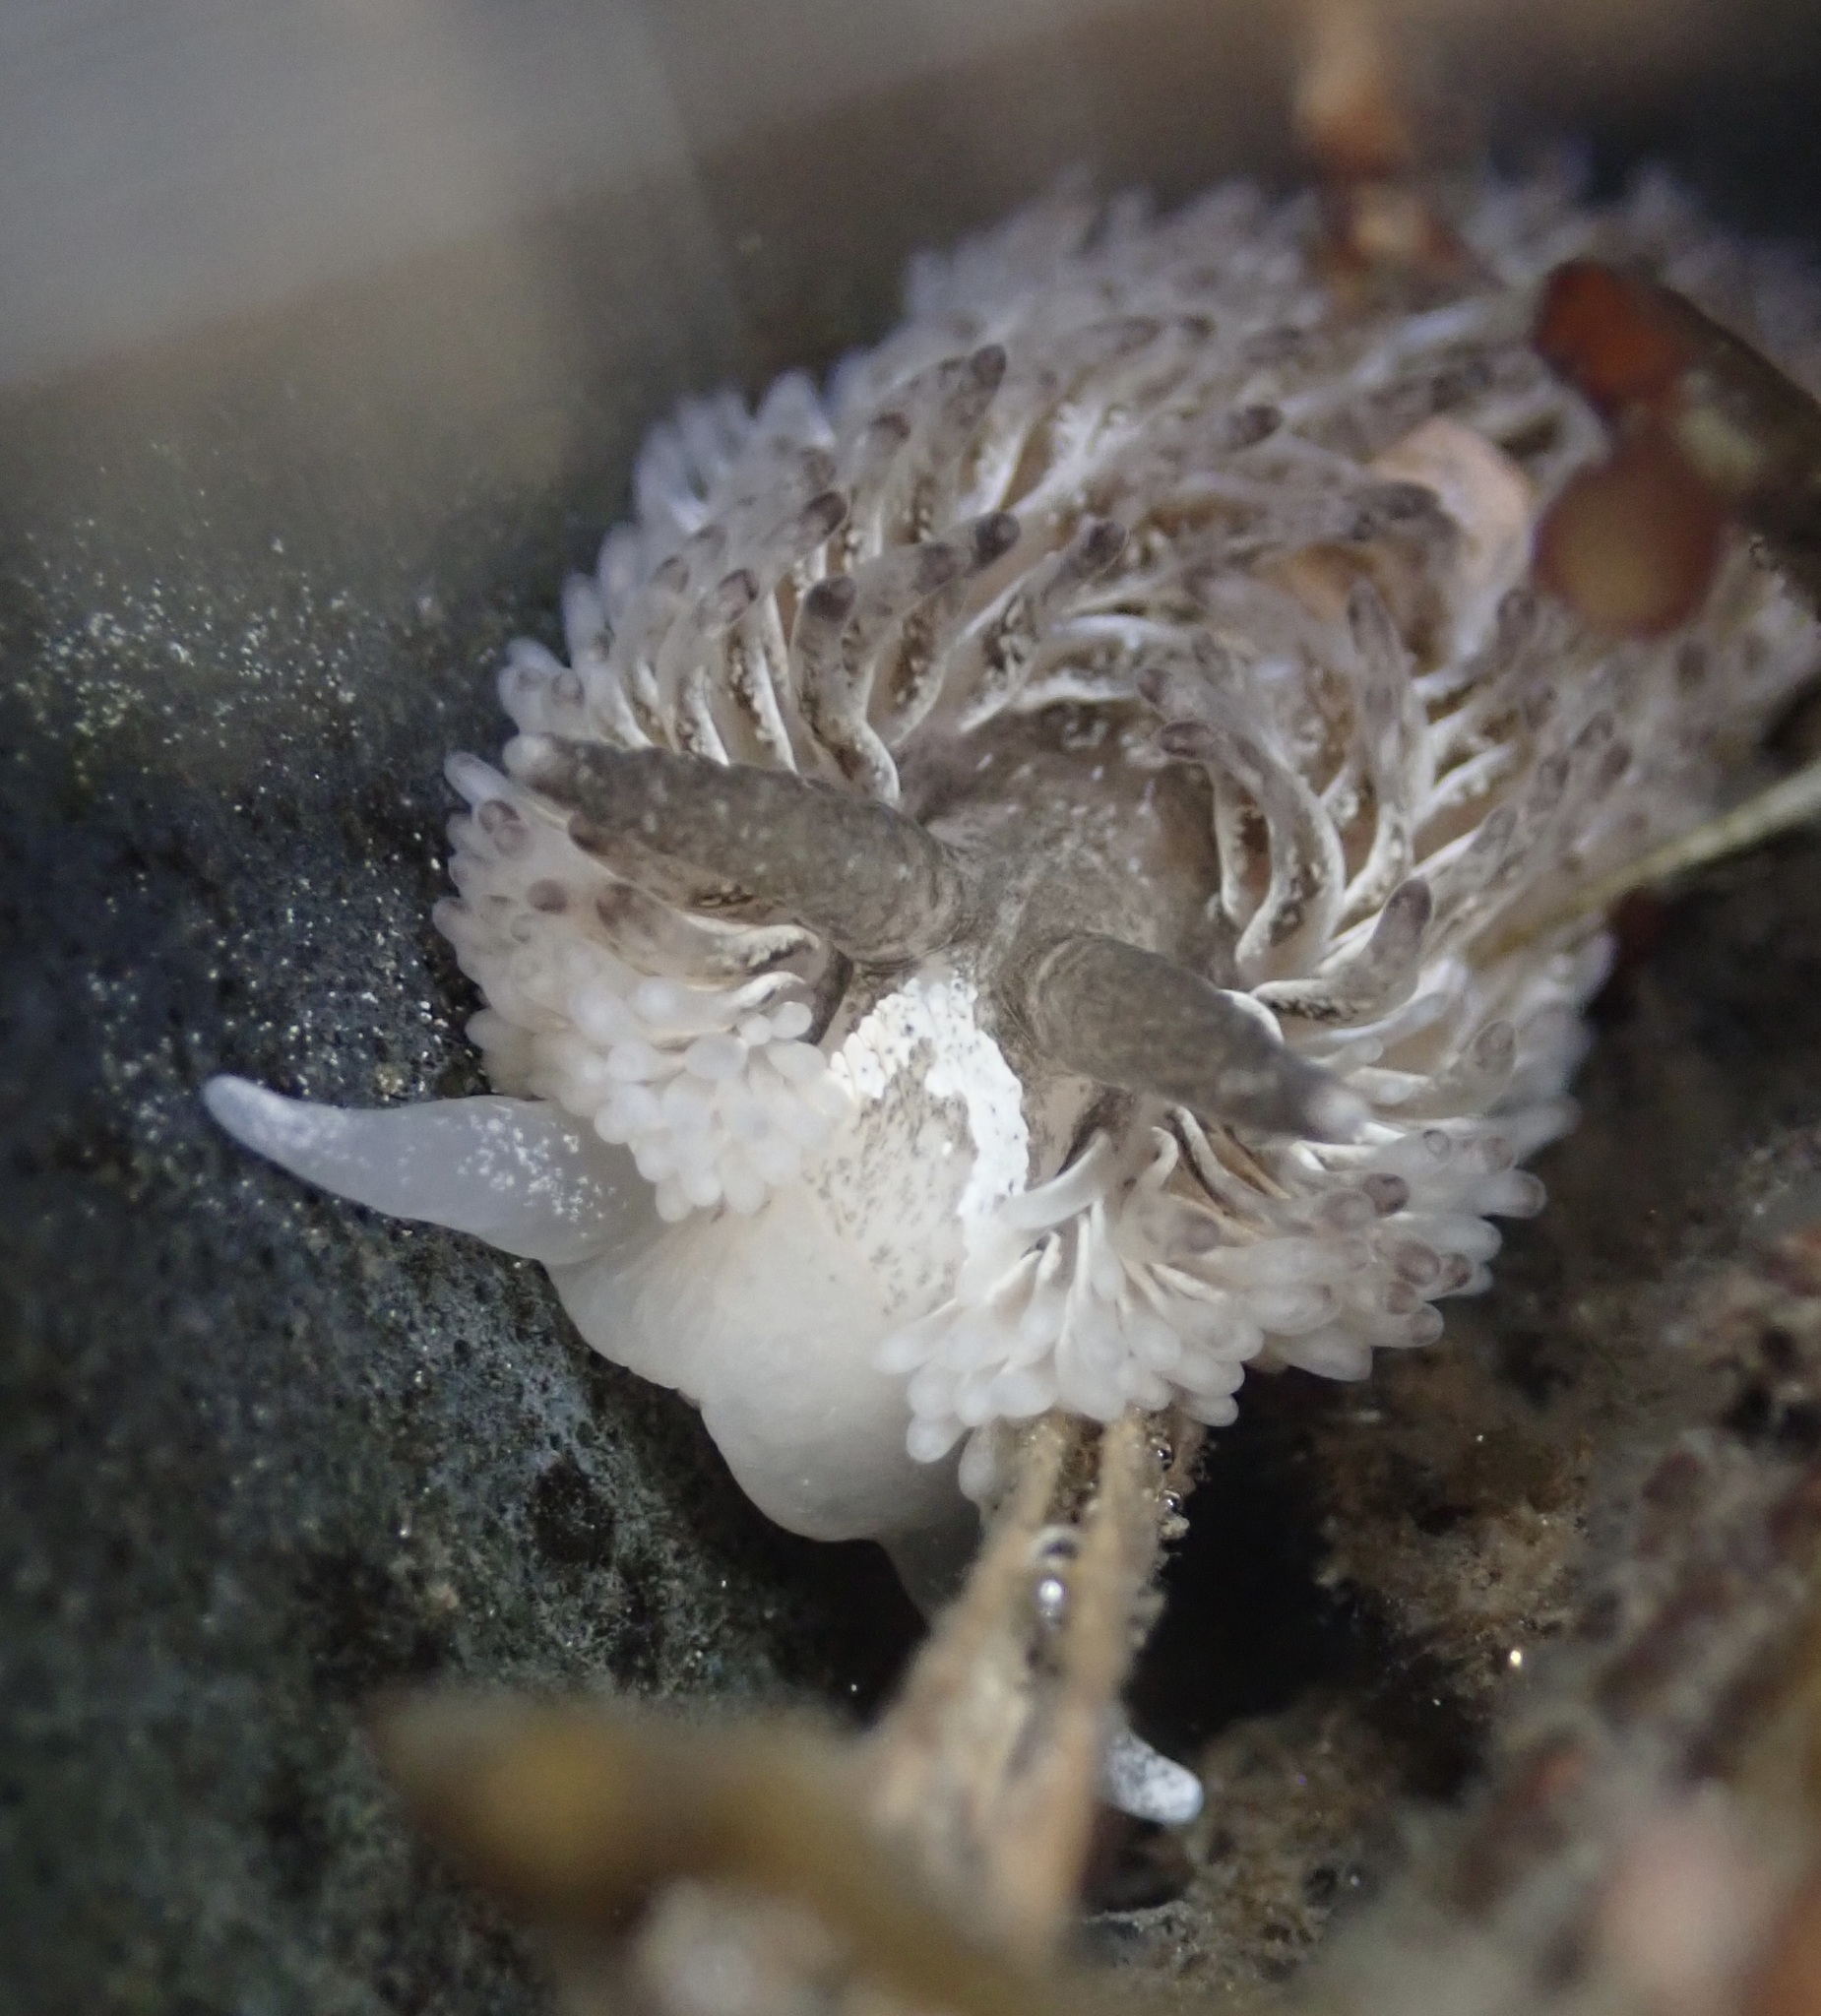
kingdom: Animalia
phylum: Mollusca
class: Gastropoda
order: Nudibranchia
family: Aeolidiidae
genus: Aeolidia
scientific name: Aeolidia loui
